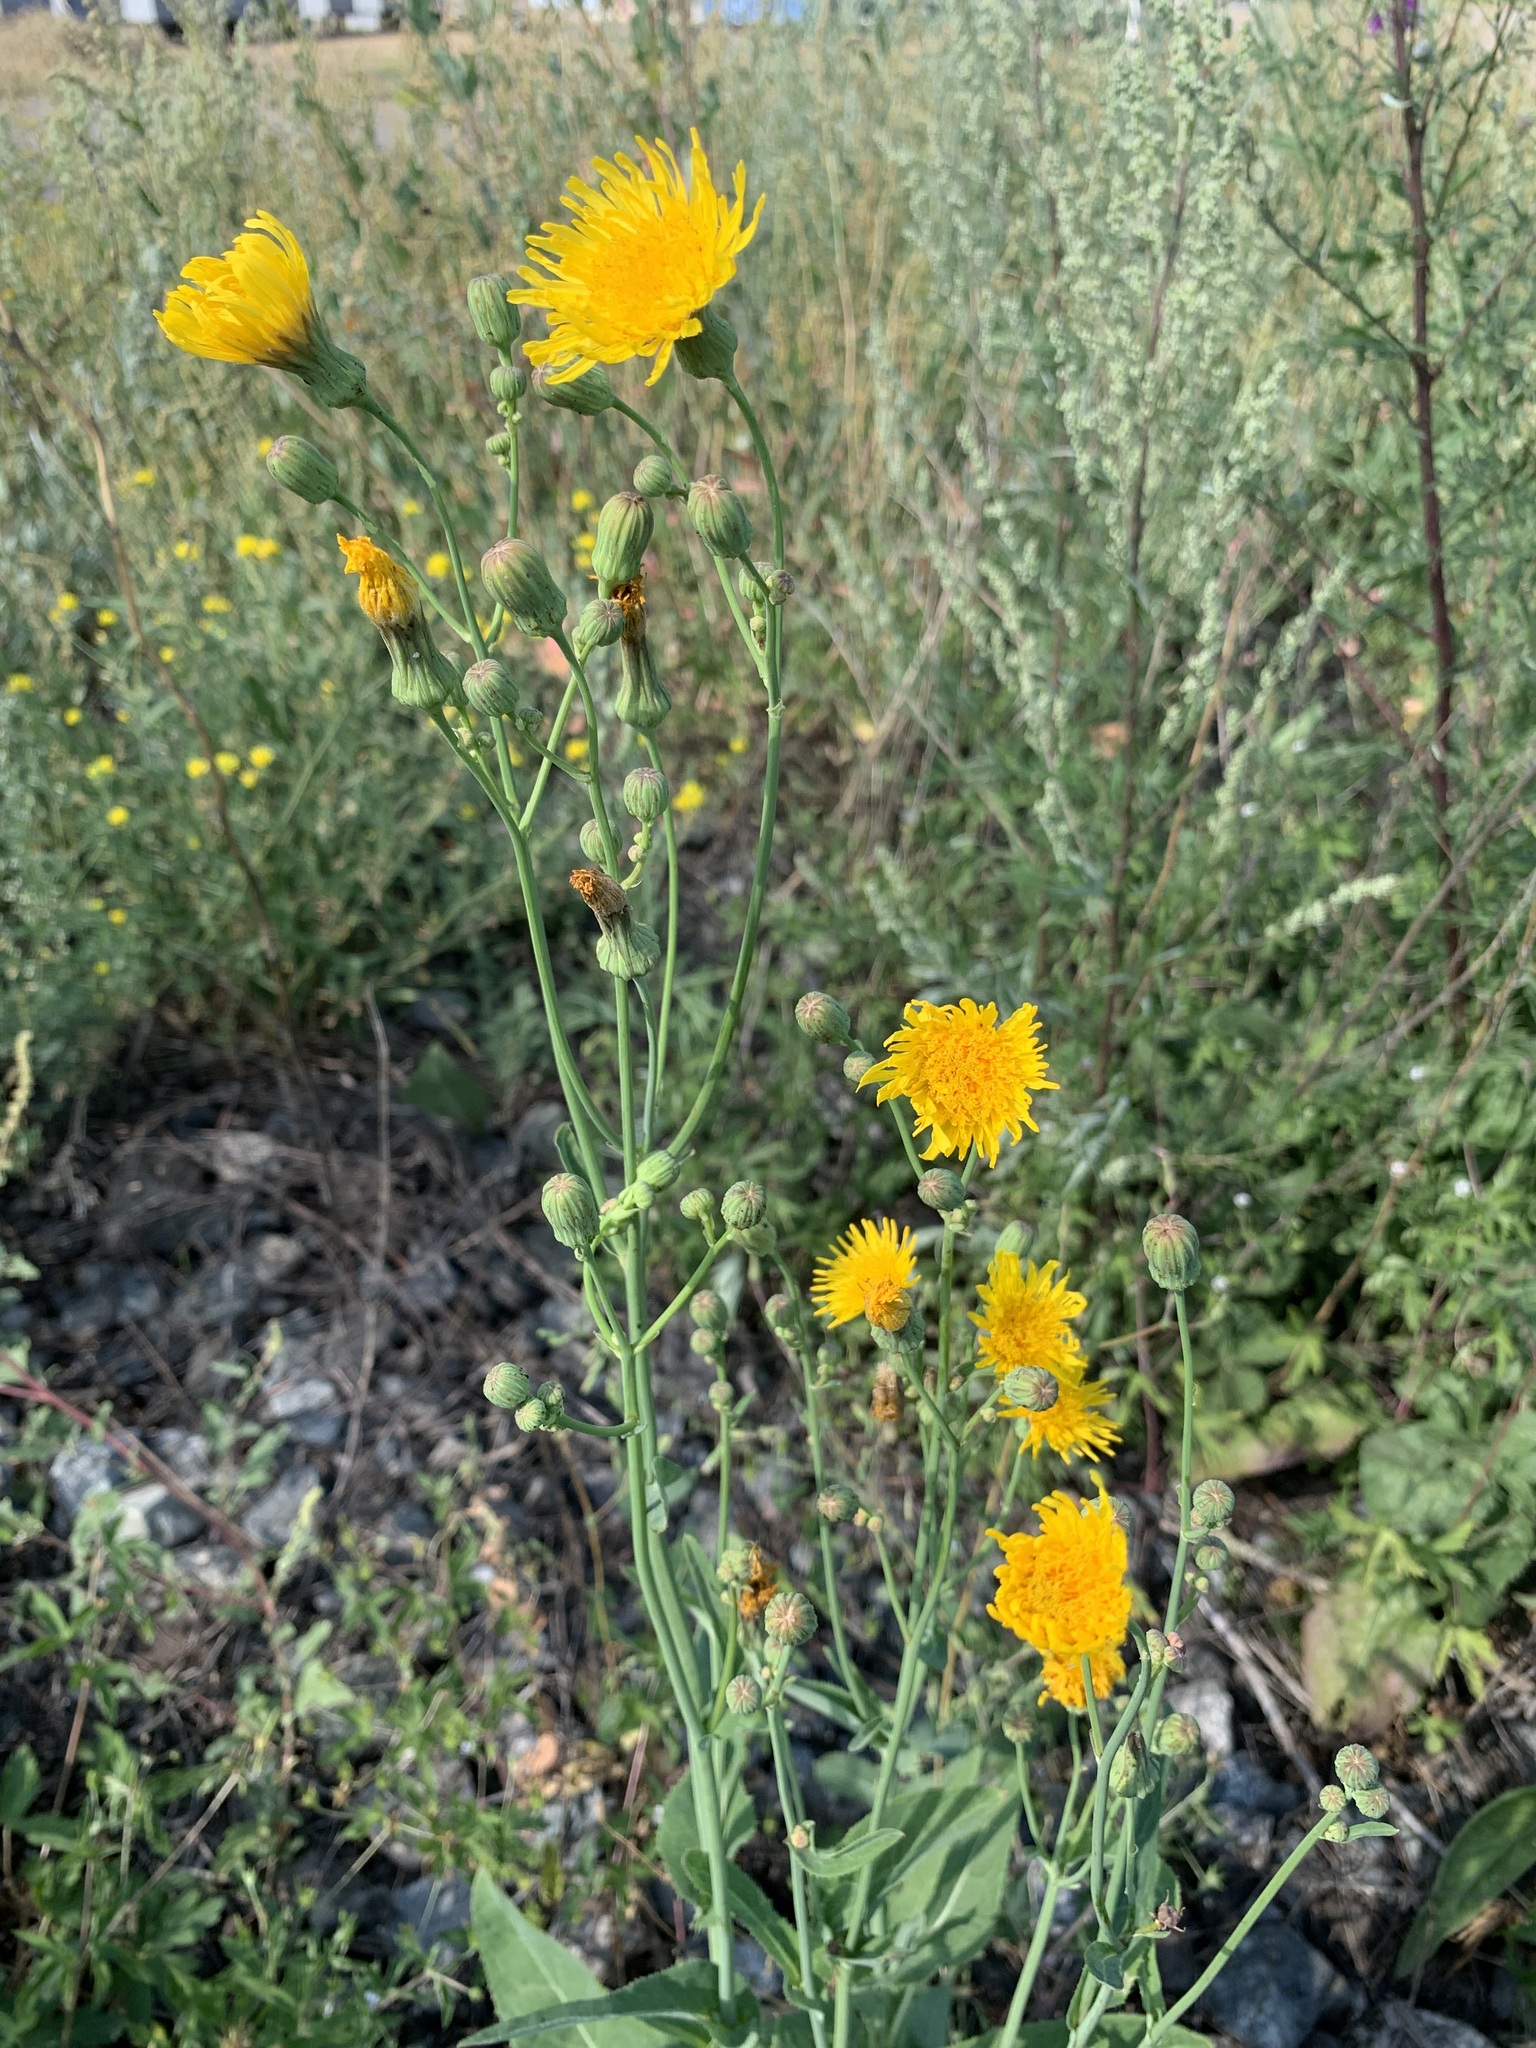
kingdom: Plantae
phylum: Tracheophyta
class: Magnoliopsida
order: Asterales
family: Asteraceae
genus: Sonchus
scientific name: Sonchus arvensis
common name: Perennial sow-thistle
